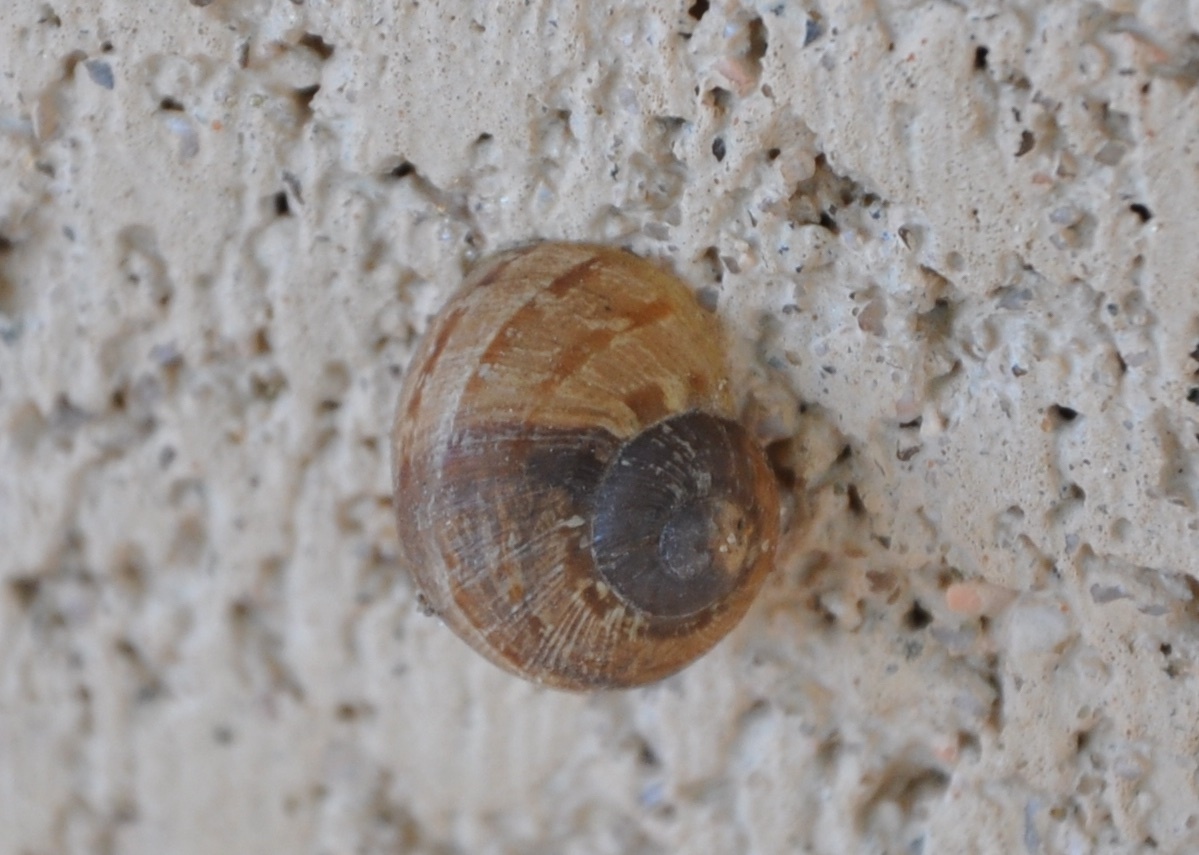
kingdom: Animalia
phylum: Mollusca
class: Gastropoda
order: Stylommatophora
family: Helicidae
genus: Cornu
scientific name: Cornu aspersum
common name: Brown garden snail
